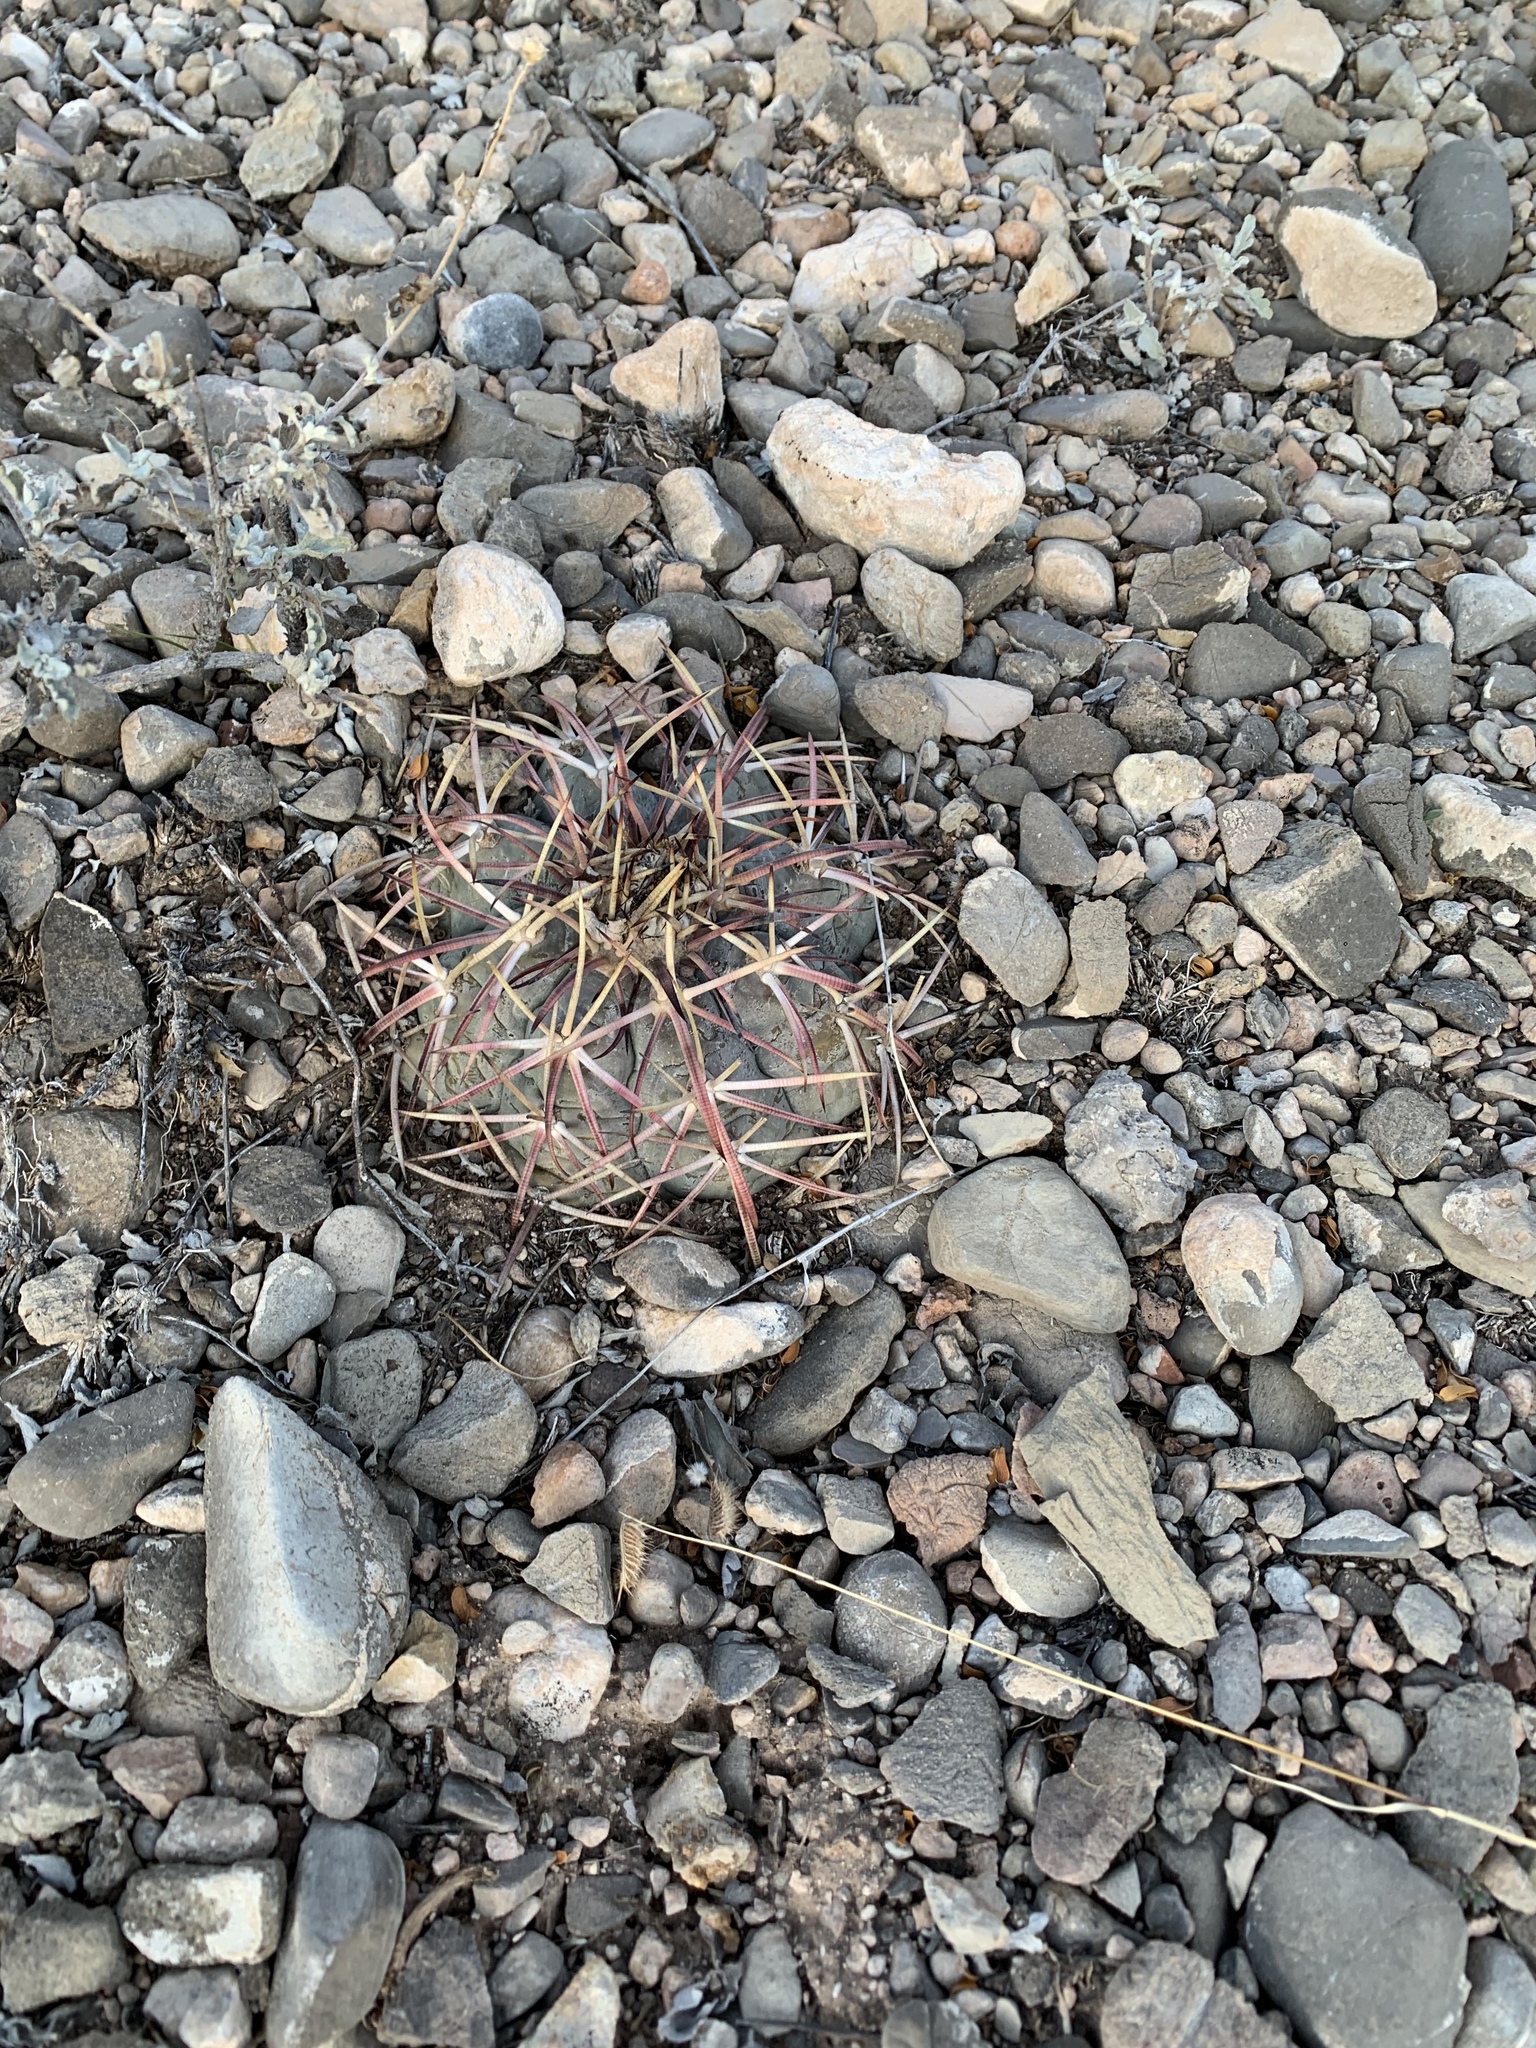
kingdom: Plantae
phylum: Tracheophyta
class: Magnoliopsida
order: Caryophyllales
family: Cactaceae
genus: Echinocactus
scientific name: Echinocactus horizonthalonius
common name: Devilshead
